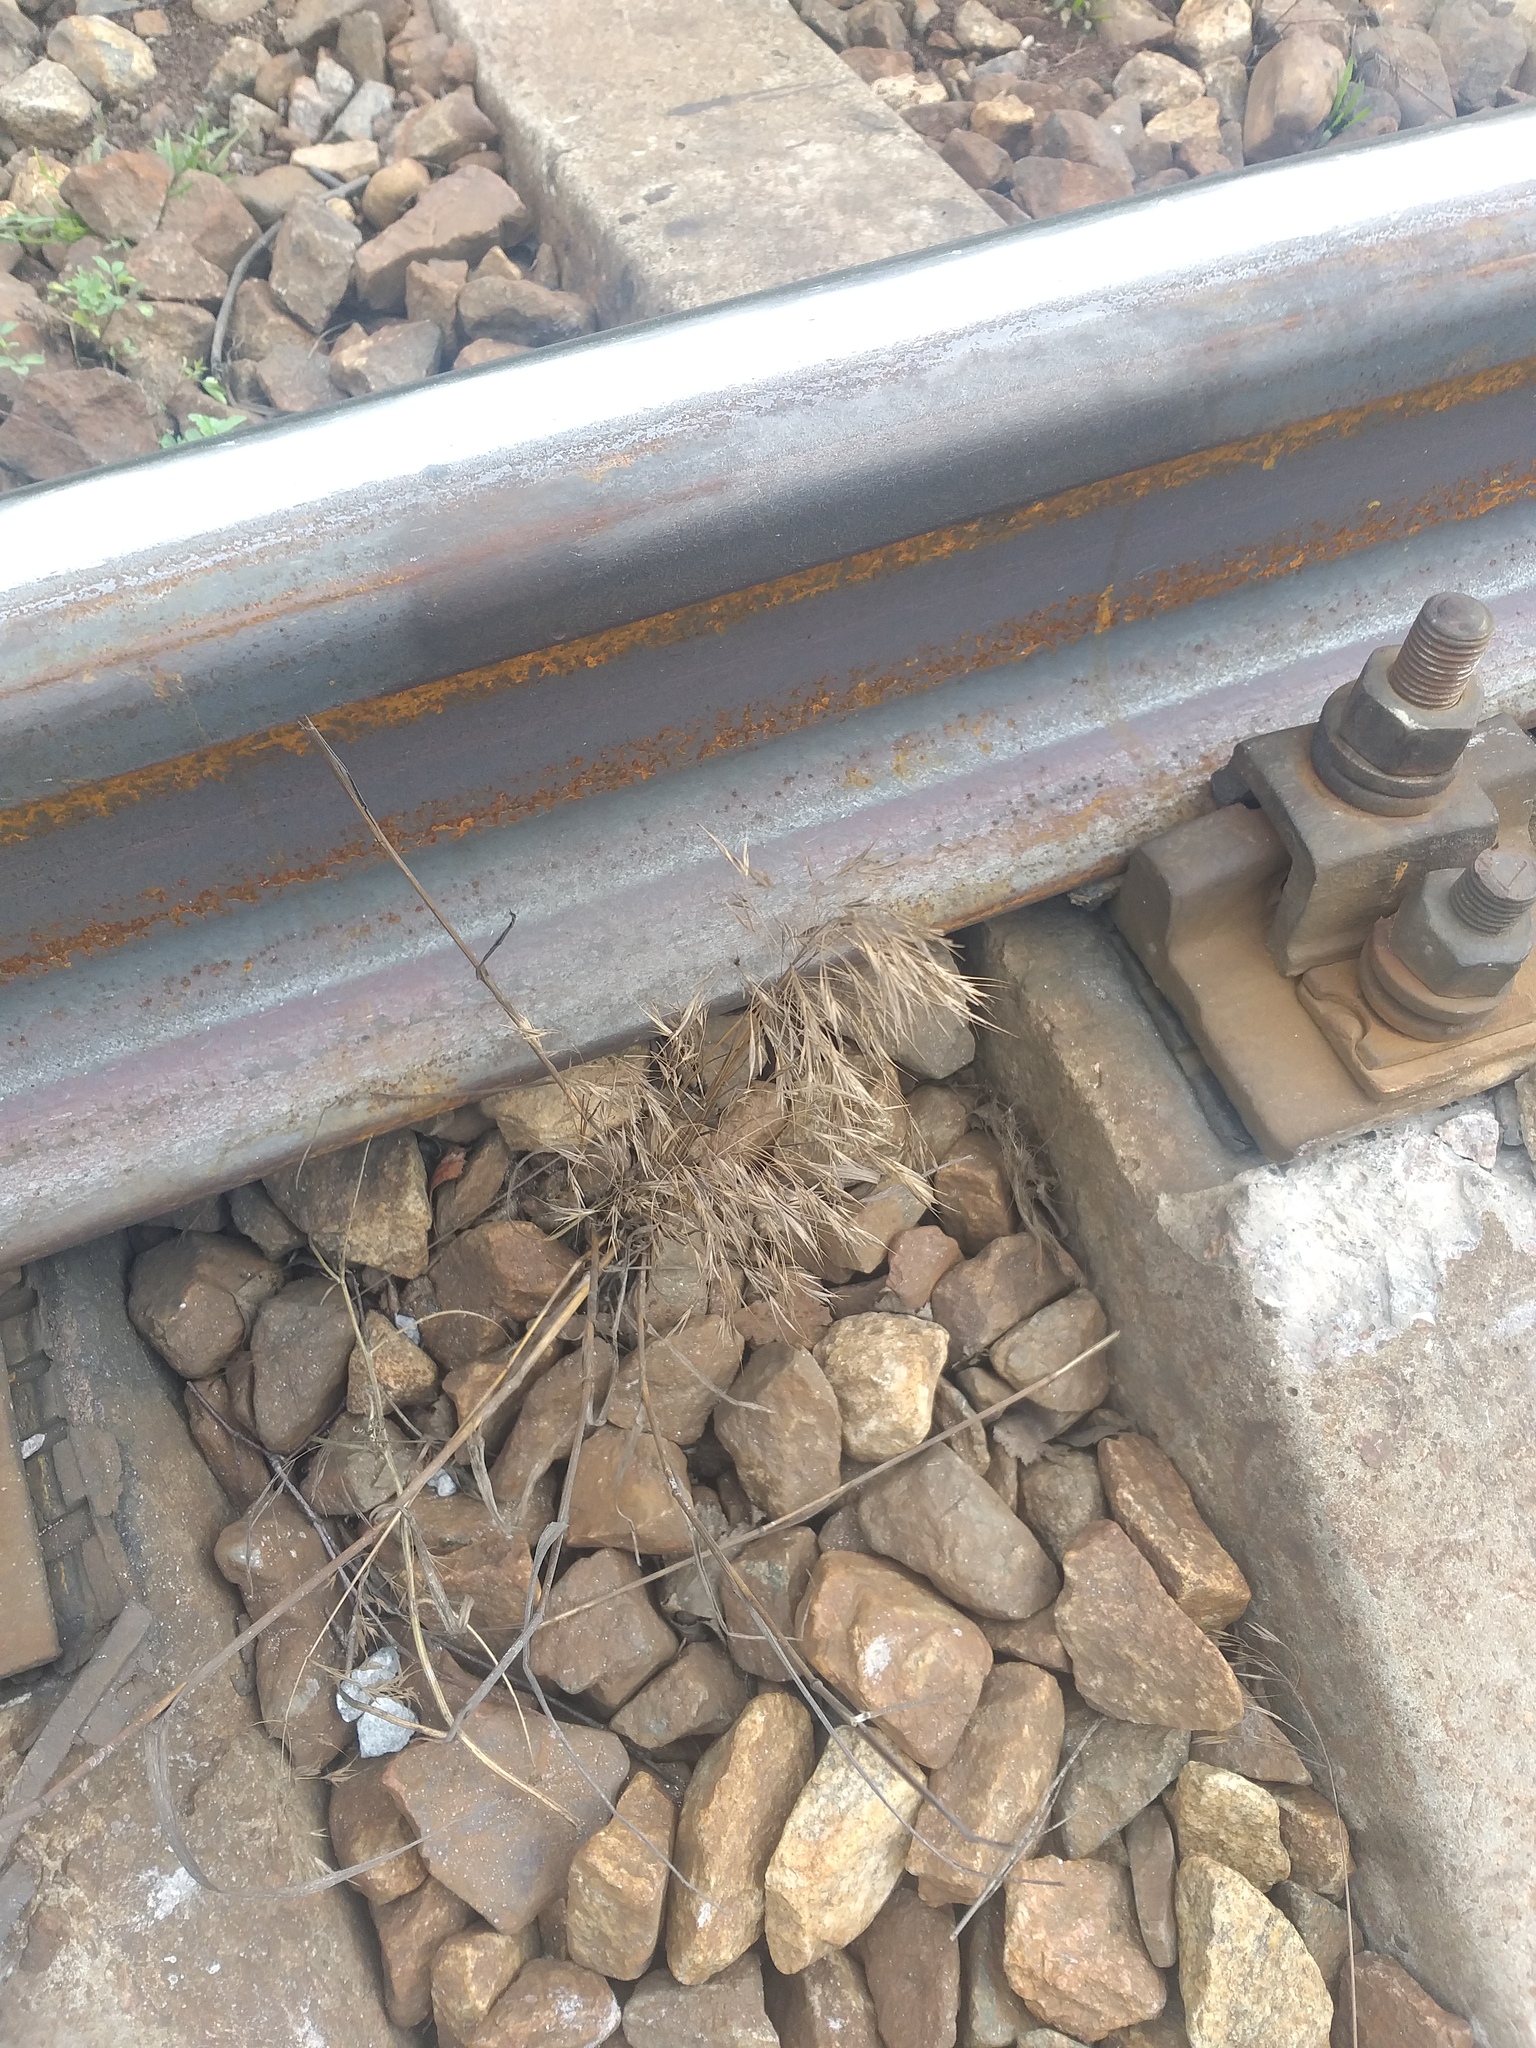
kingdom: Plantae
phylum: Tracheophyta
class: Liliopsida
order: Poales
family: Poaceae
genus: Bromus
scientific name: Bromus tectorum
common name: Cheatgrass
